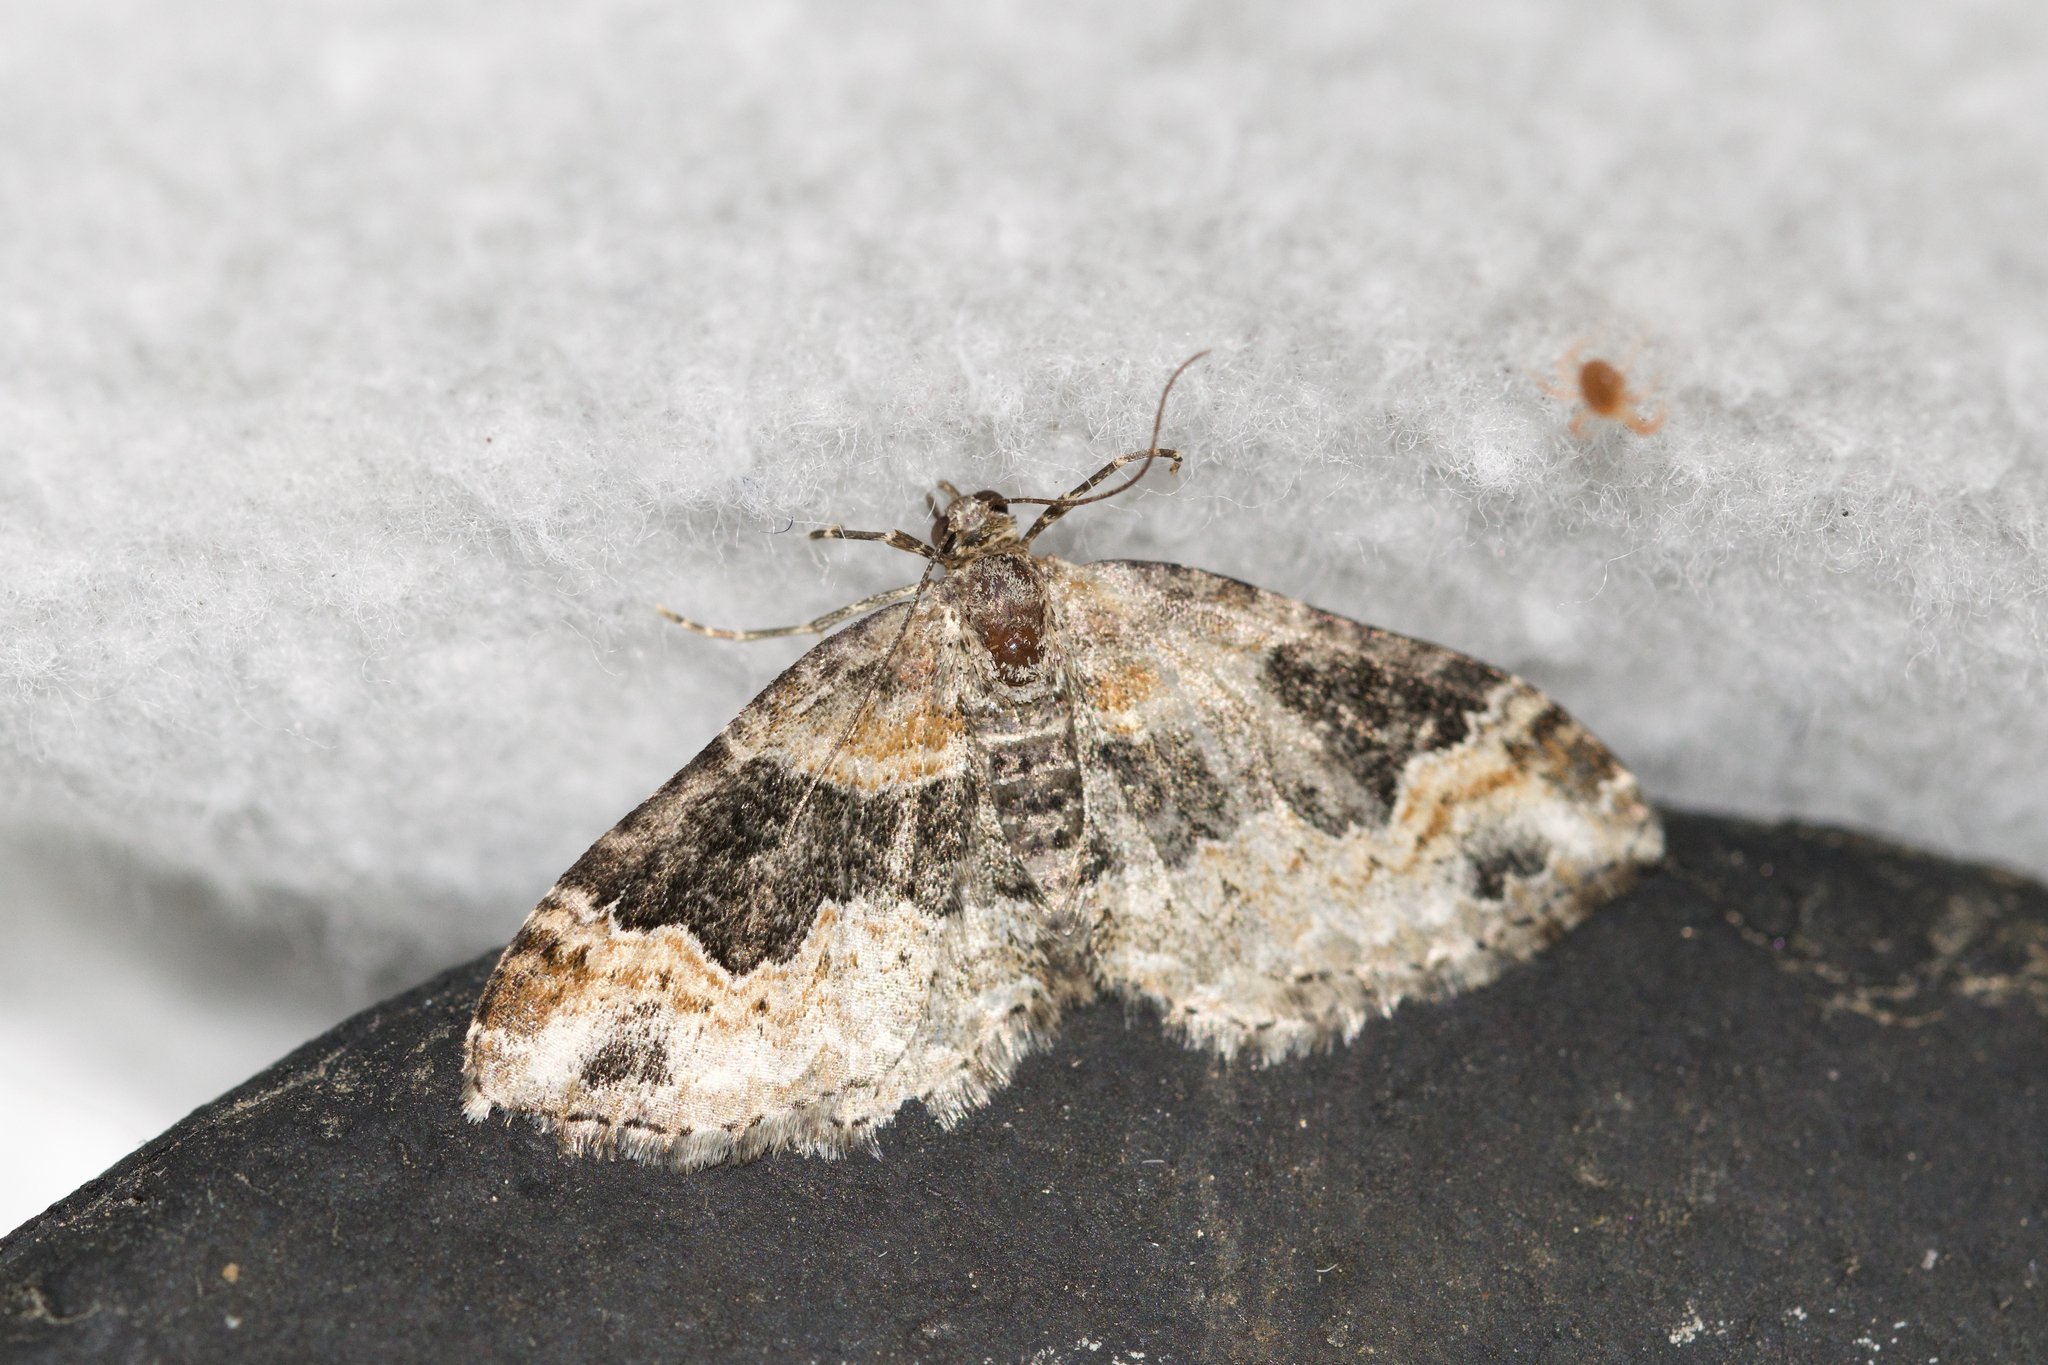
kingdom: Animalia
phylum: Arthropoda
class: Insecta
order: Lepidoptera
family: Geometridae
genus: Xanthorhoe
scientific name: Xanthorhoe ferrugata
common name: Dark-barred twin-spot carpet
